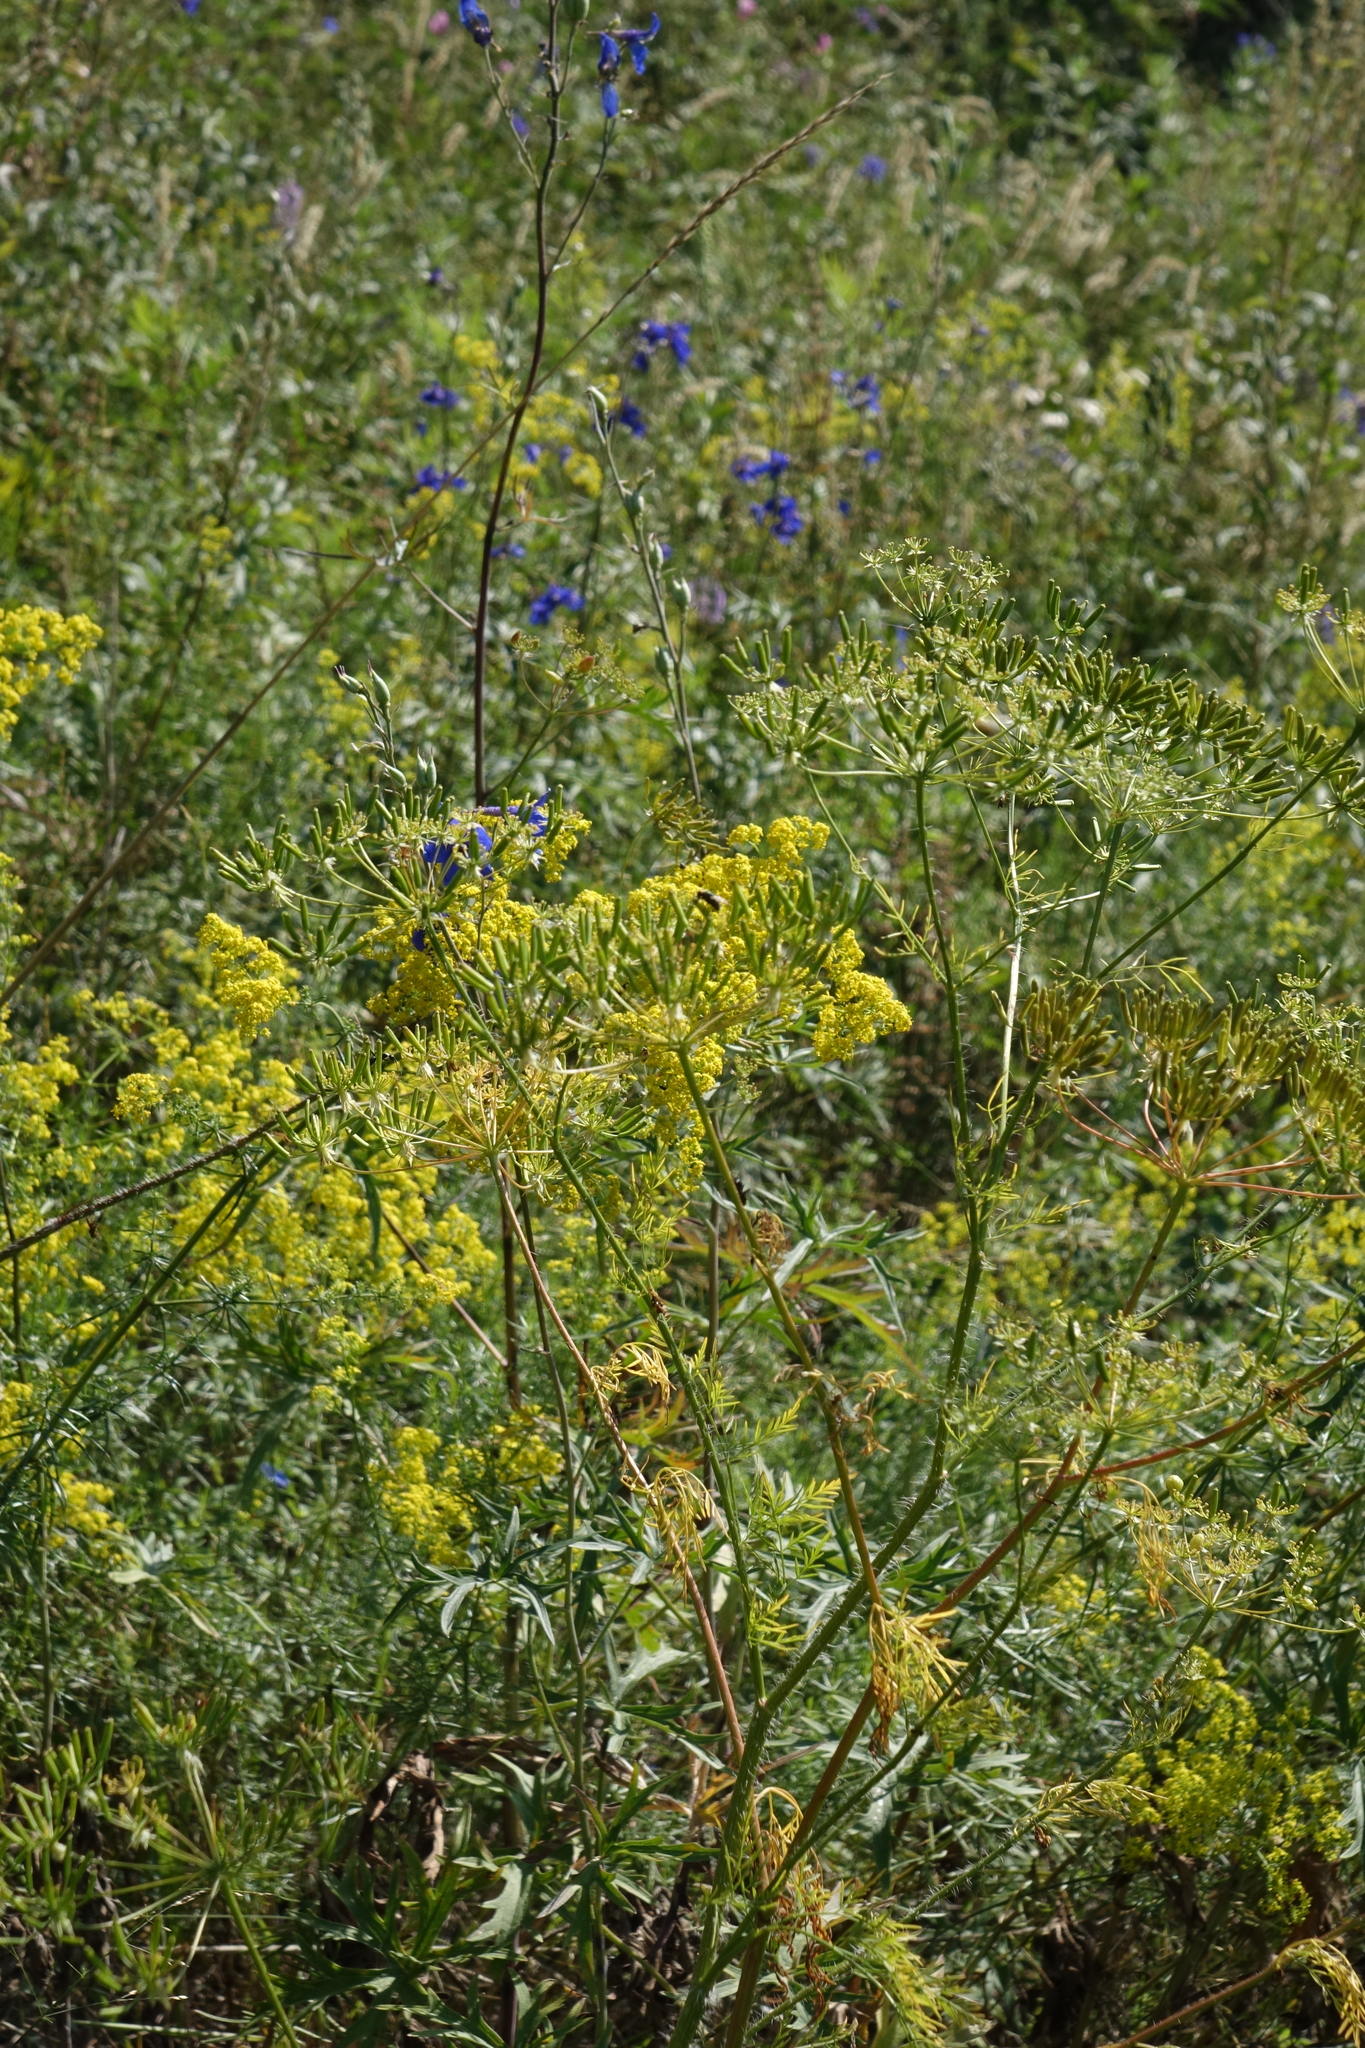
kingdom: Plantae
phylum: Tracheophyta
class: Magnoliopsida
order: Apiales
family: Apiaceae
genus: Chaerophyllum
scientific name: Chaerophyllum prescottii
